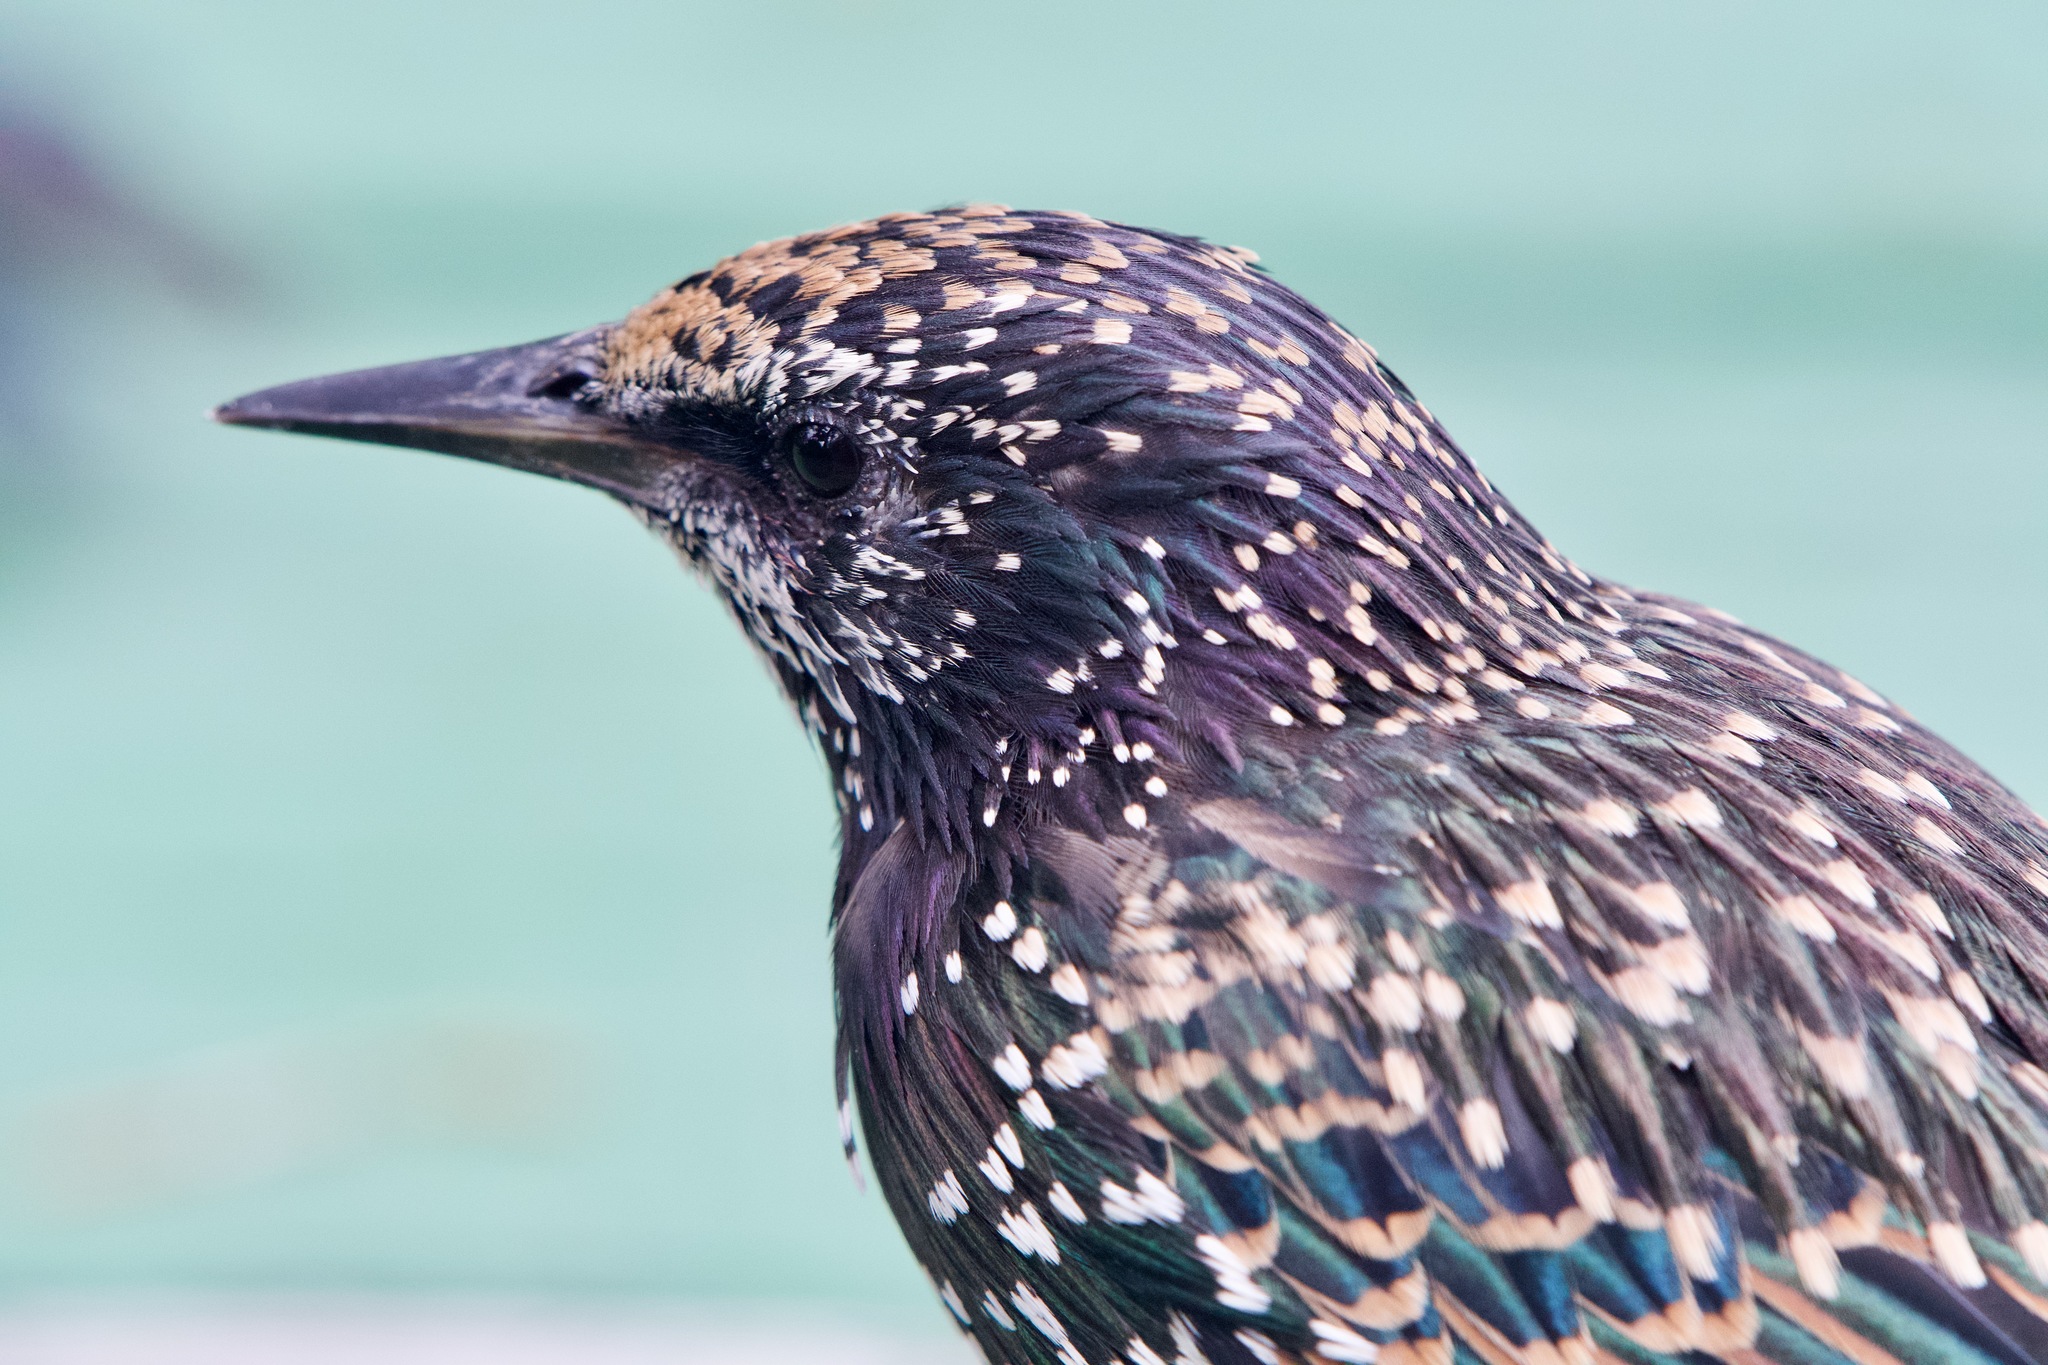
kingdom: Animalia
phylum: Chordata
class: Aves
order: Passeriformes
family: Sturnidae
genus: Sturnus
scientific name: Sturnus vulgaris
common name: Common starling
